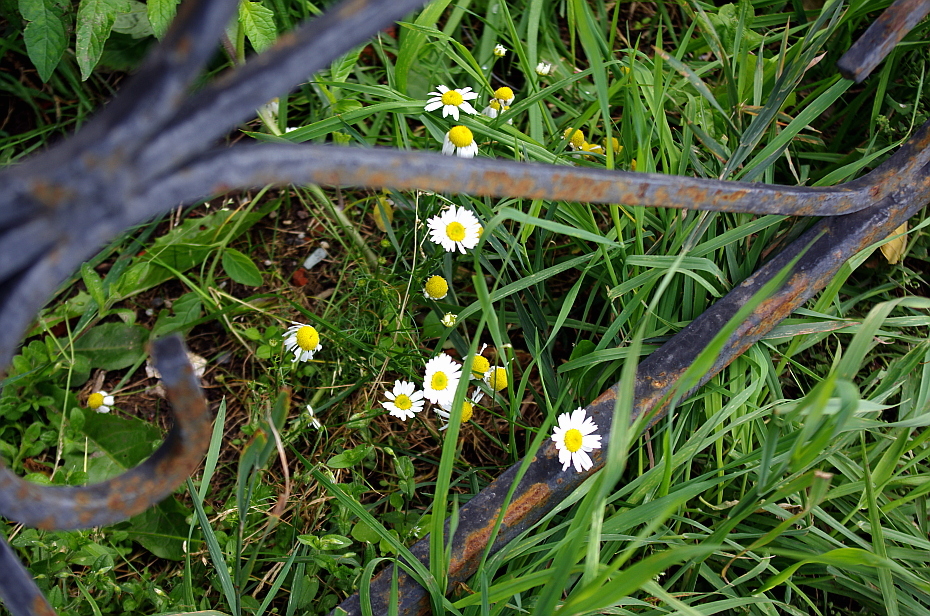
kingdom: Plantae
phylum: Tracheophyta
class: Magnoliopsida
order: Asterales
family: Asteraceae
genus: Tripleurospermum
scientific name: Tripleurospermum inodorum
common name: Scentless mayweed
